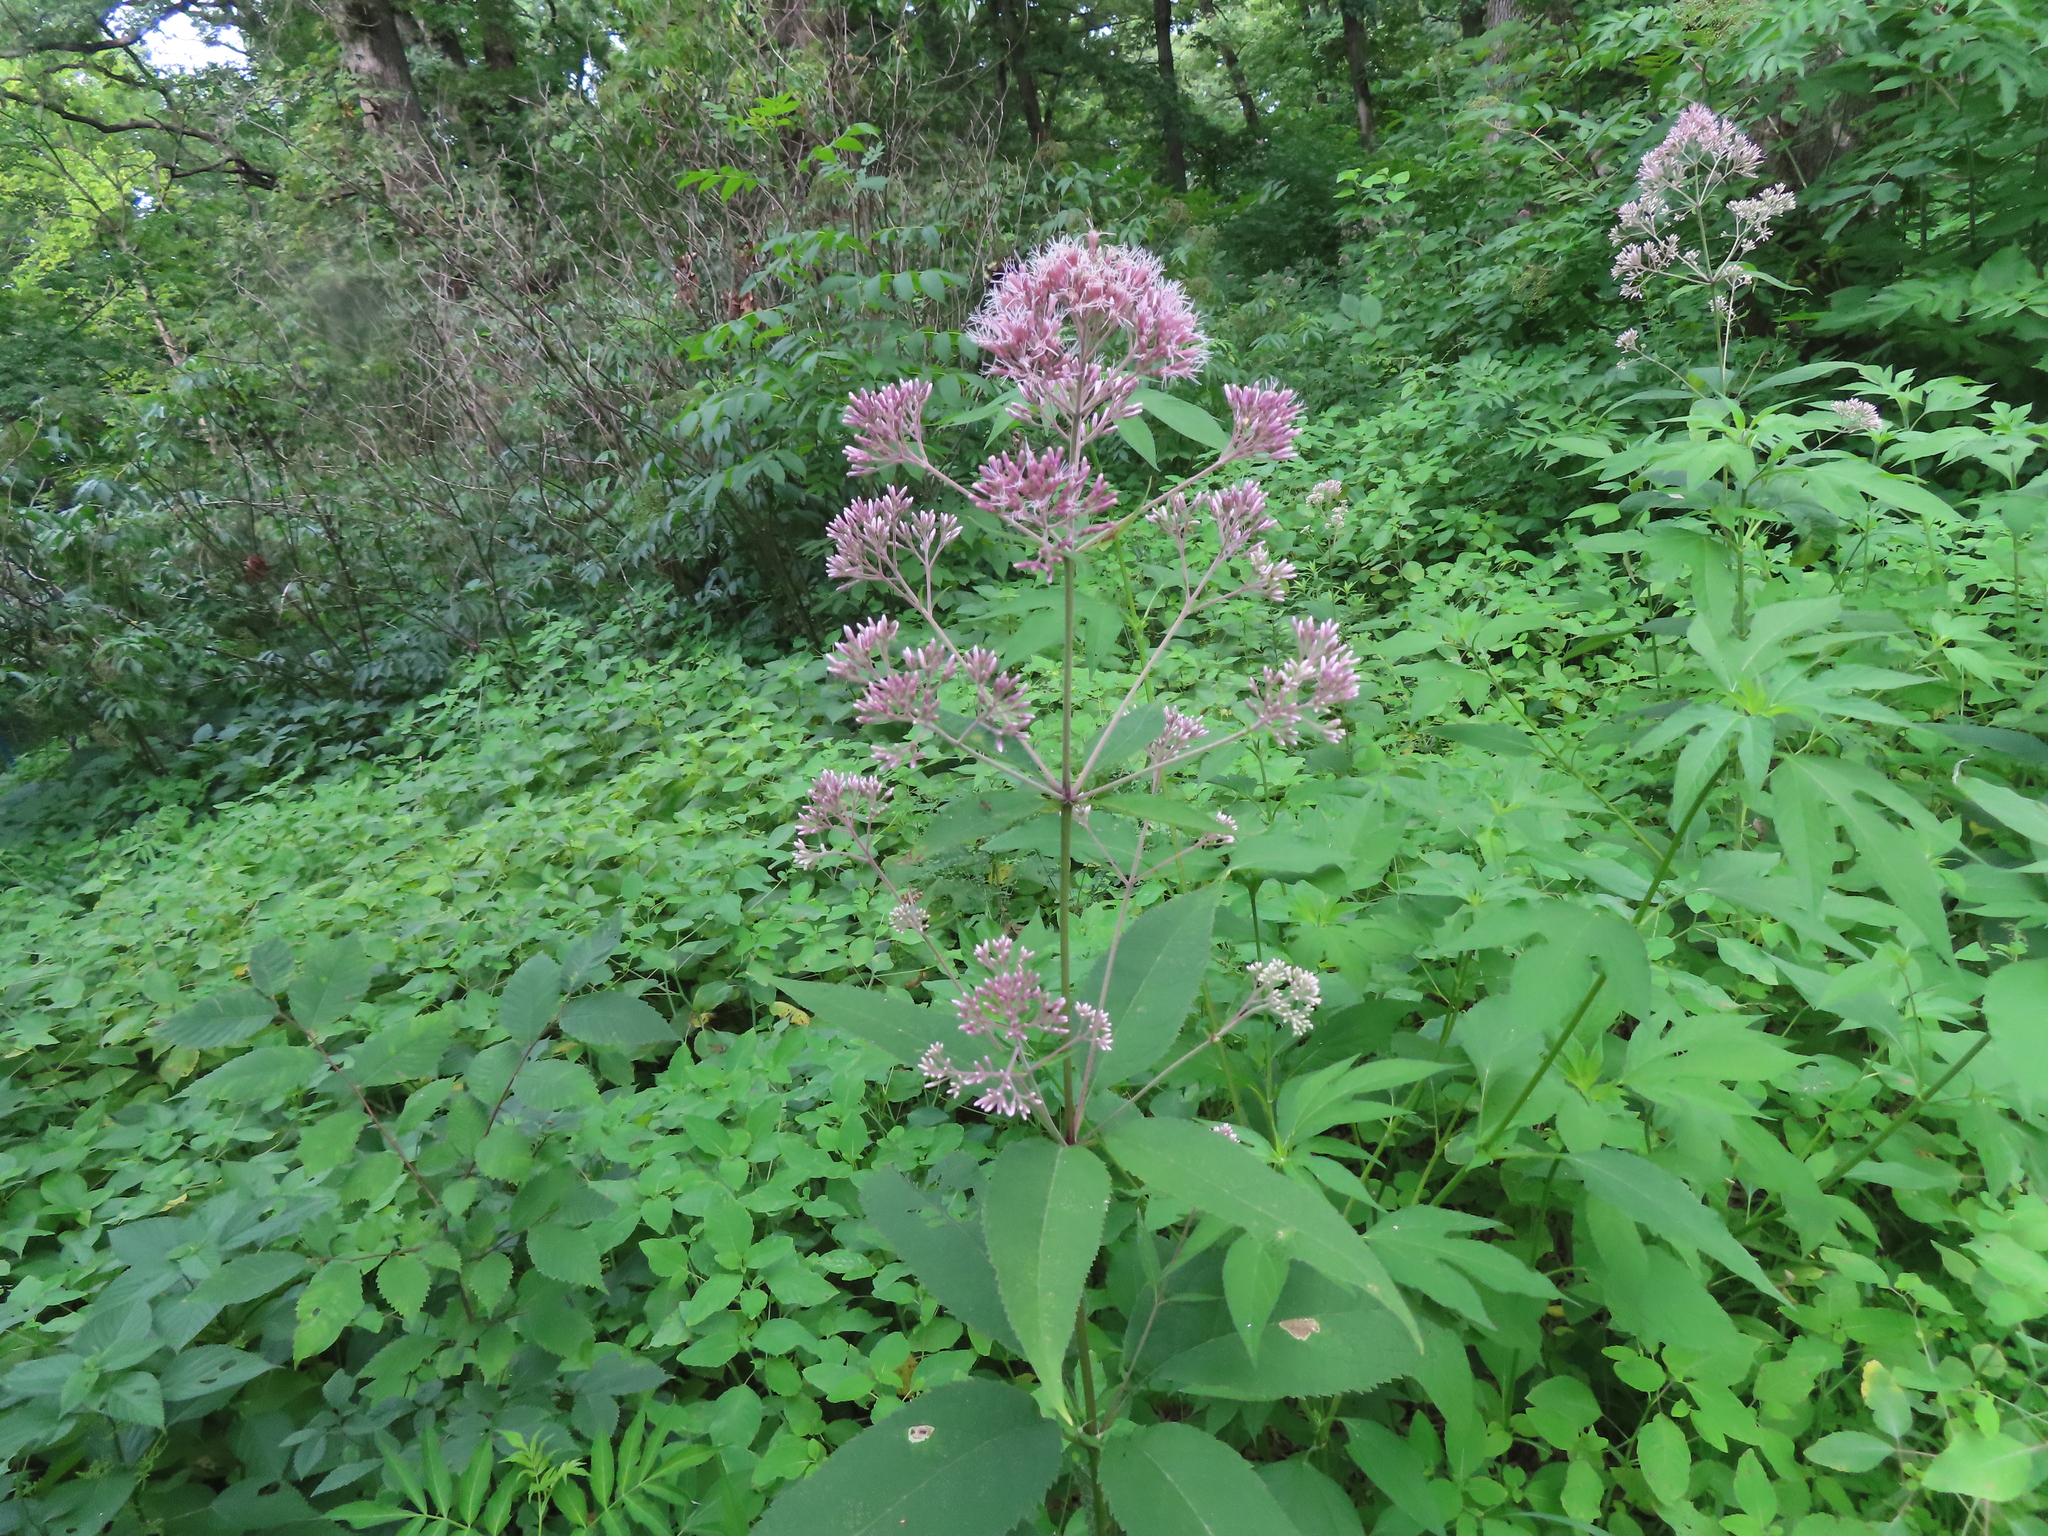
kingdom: Plantae
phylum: Tracheophyta
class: Magnoliopsida
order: Asterales
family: Asteraceae
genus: Eutrochium
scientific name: Eutrochium purpureum
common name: Gravelroot
